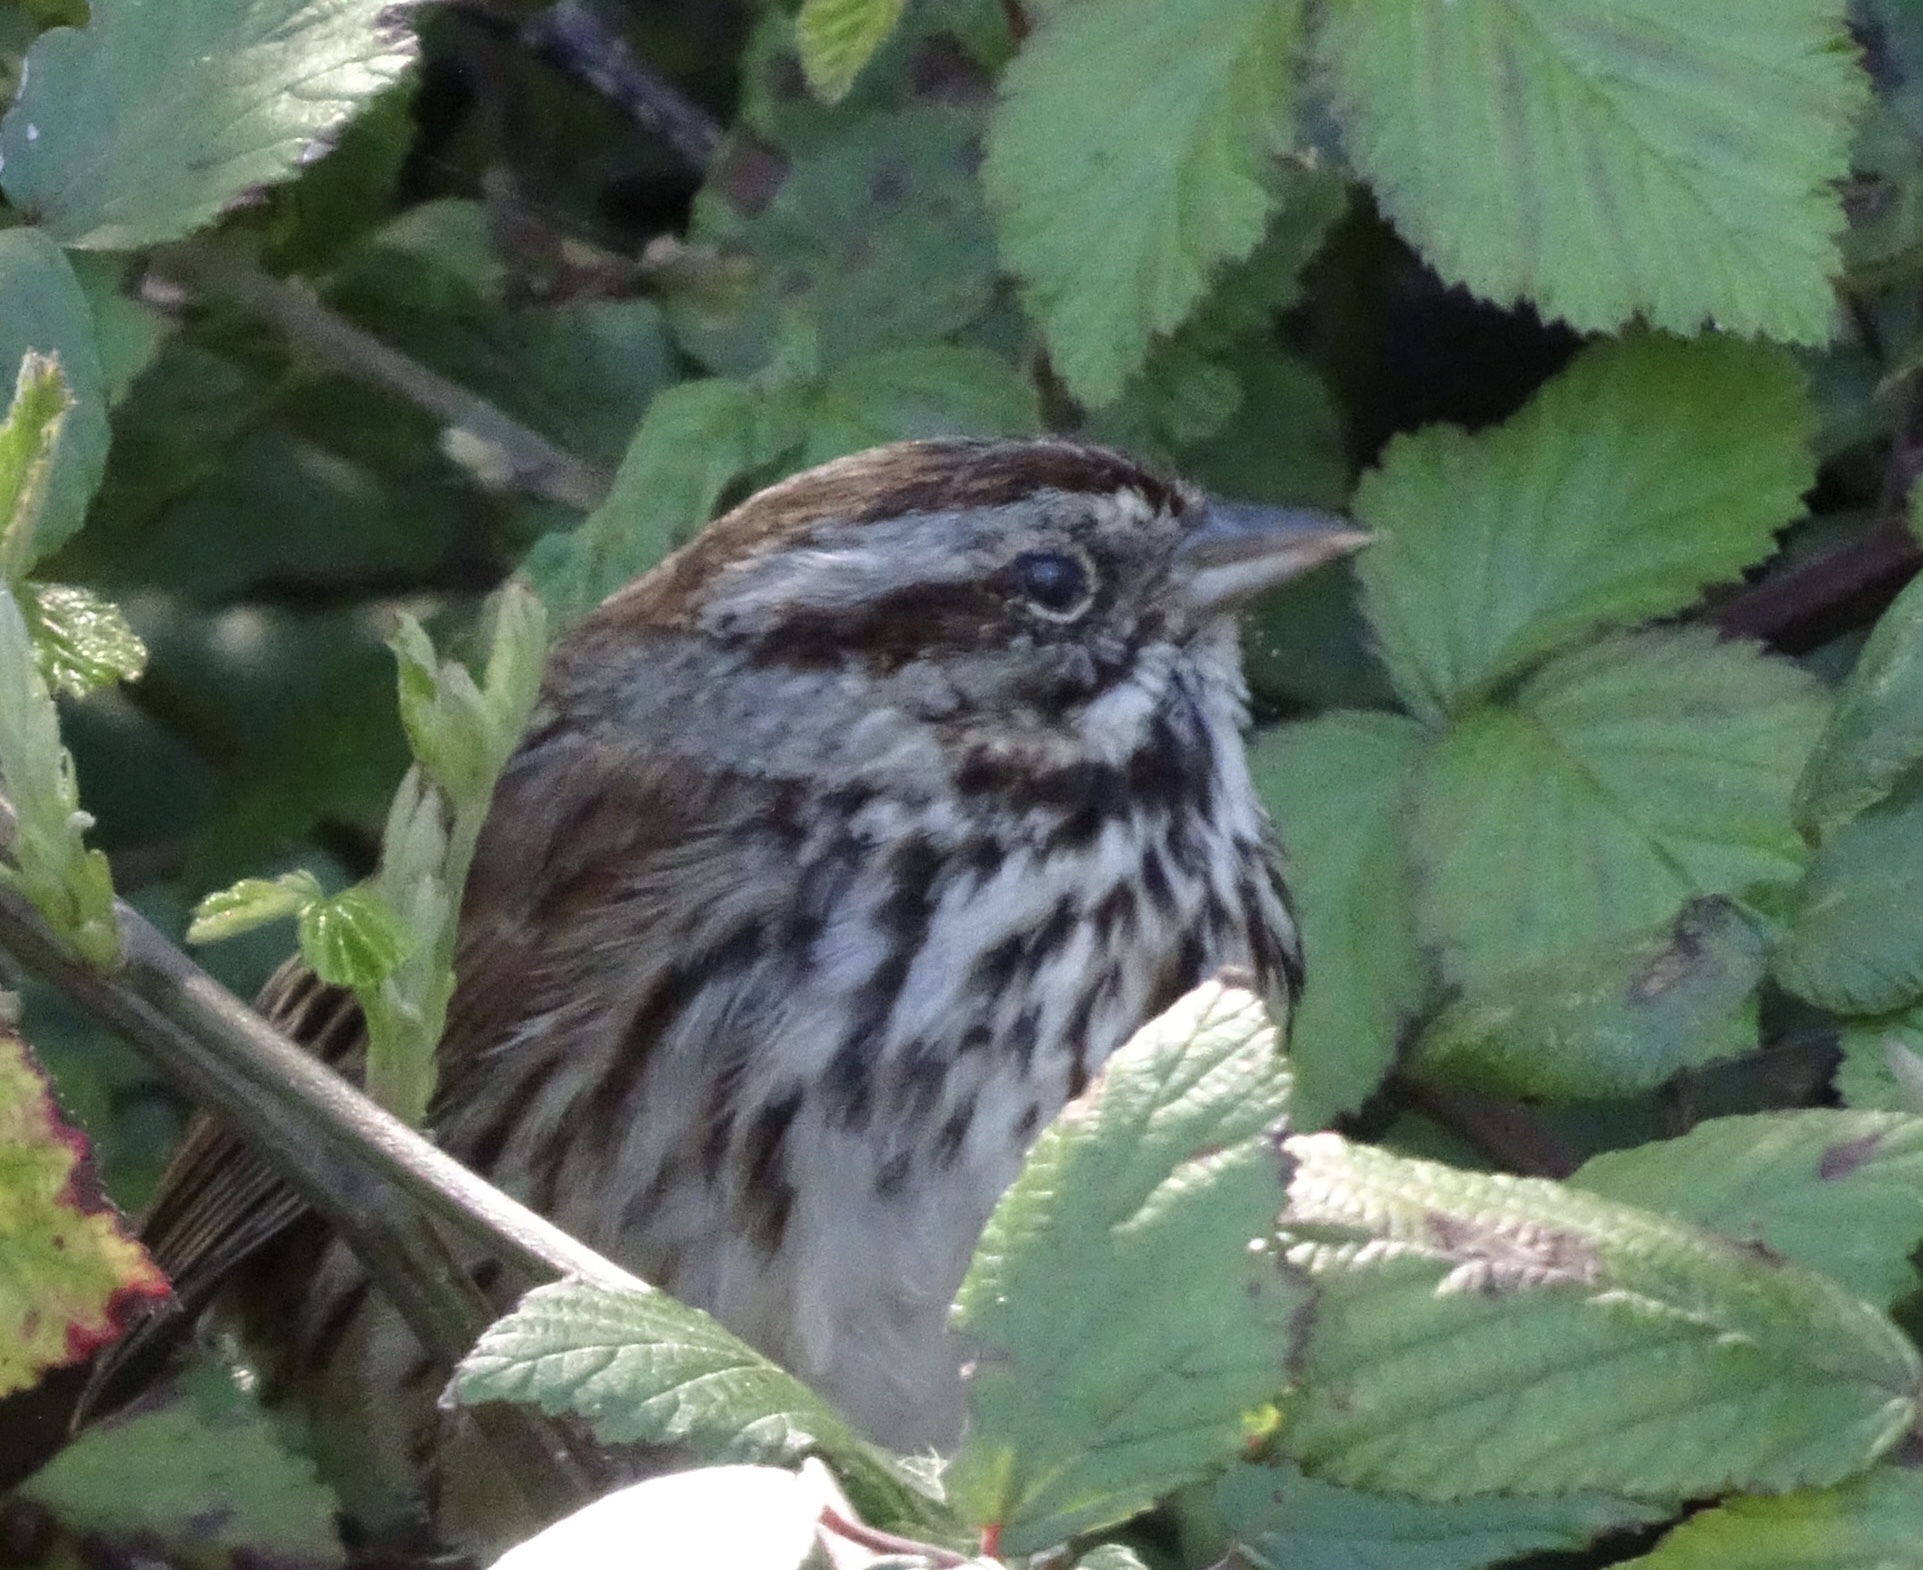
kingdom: Animalia
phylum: Chordata
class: Aves
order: Passeriformes
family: Passerellidae
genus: Melospiza
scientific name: Melospiza melodia
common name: Song sparrow
